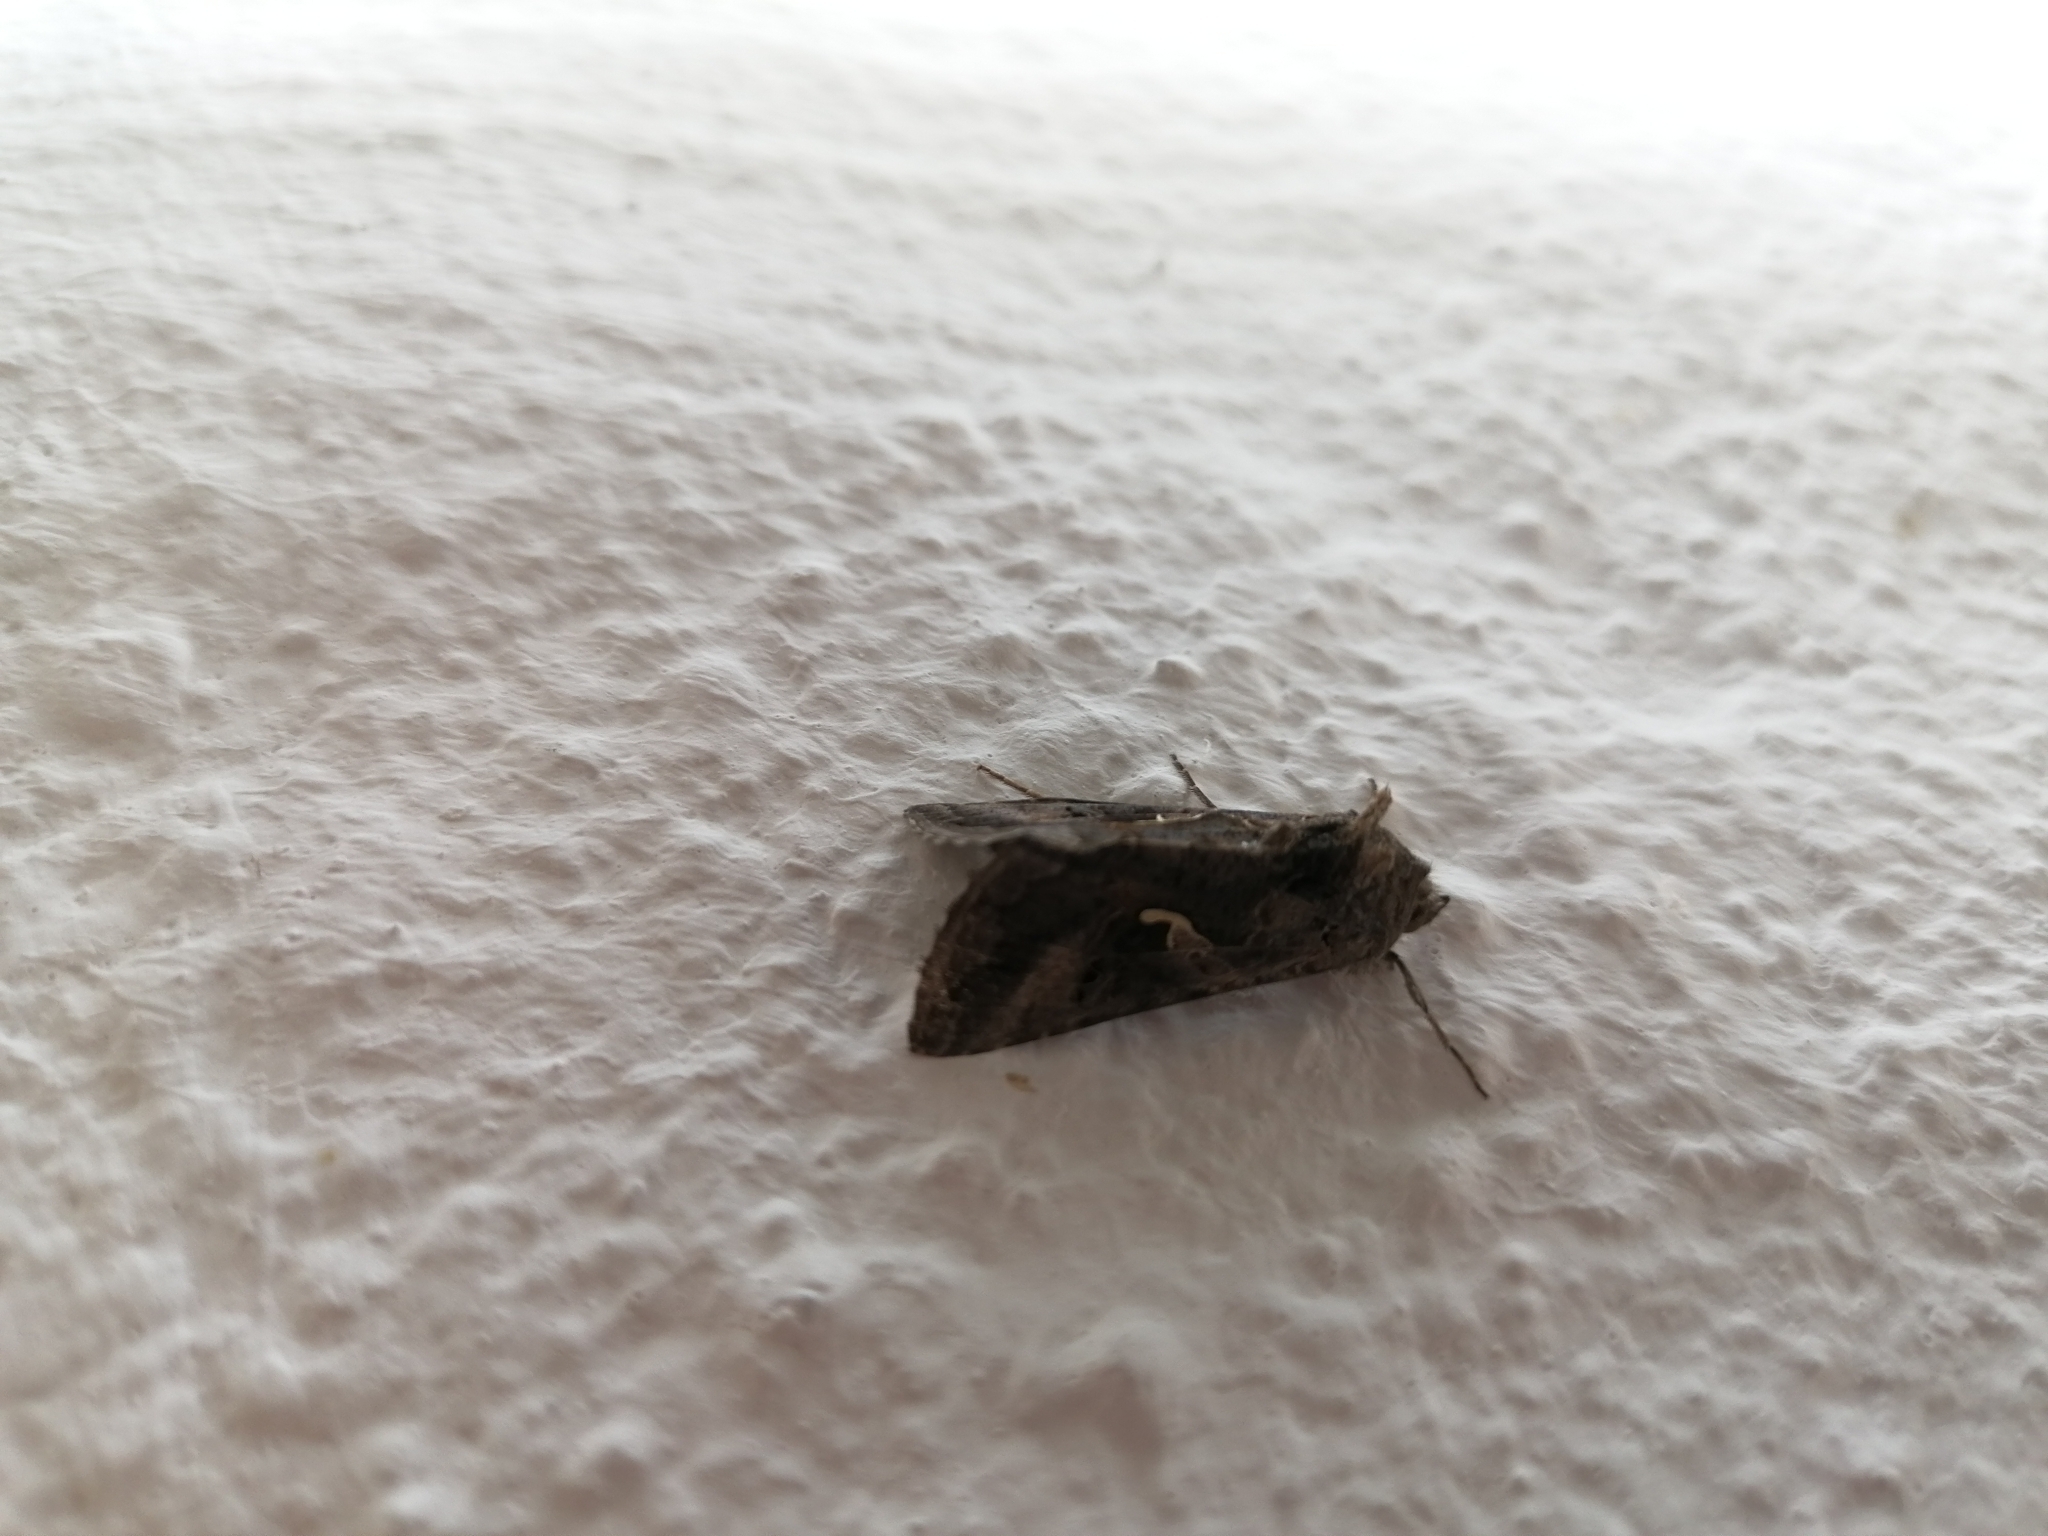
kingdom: Animalia
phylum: Arthropoda
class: Insecta
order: Lepidoptera
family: Noctuidae
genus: Autographa
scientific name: Autographa gamma
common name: Silver y
